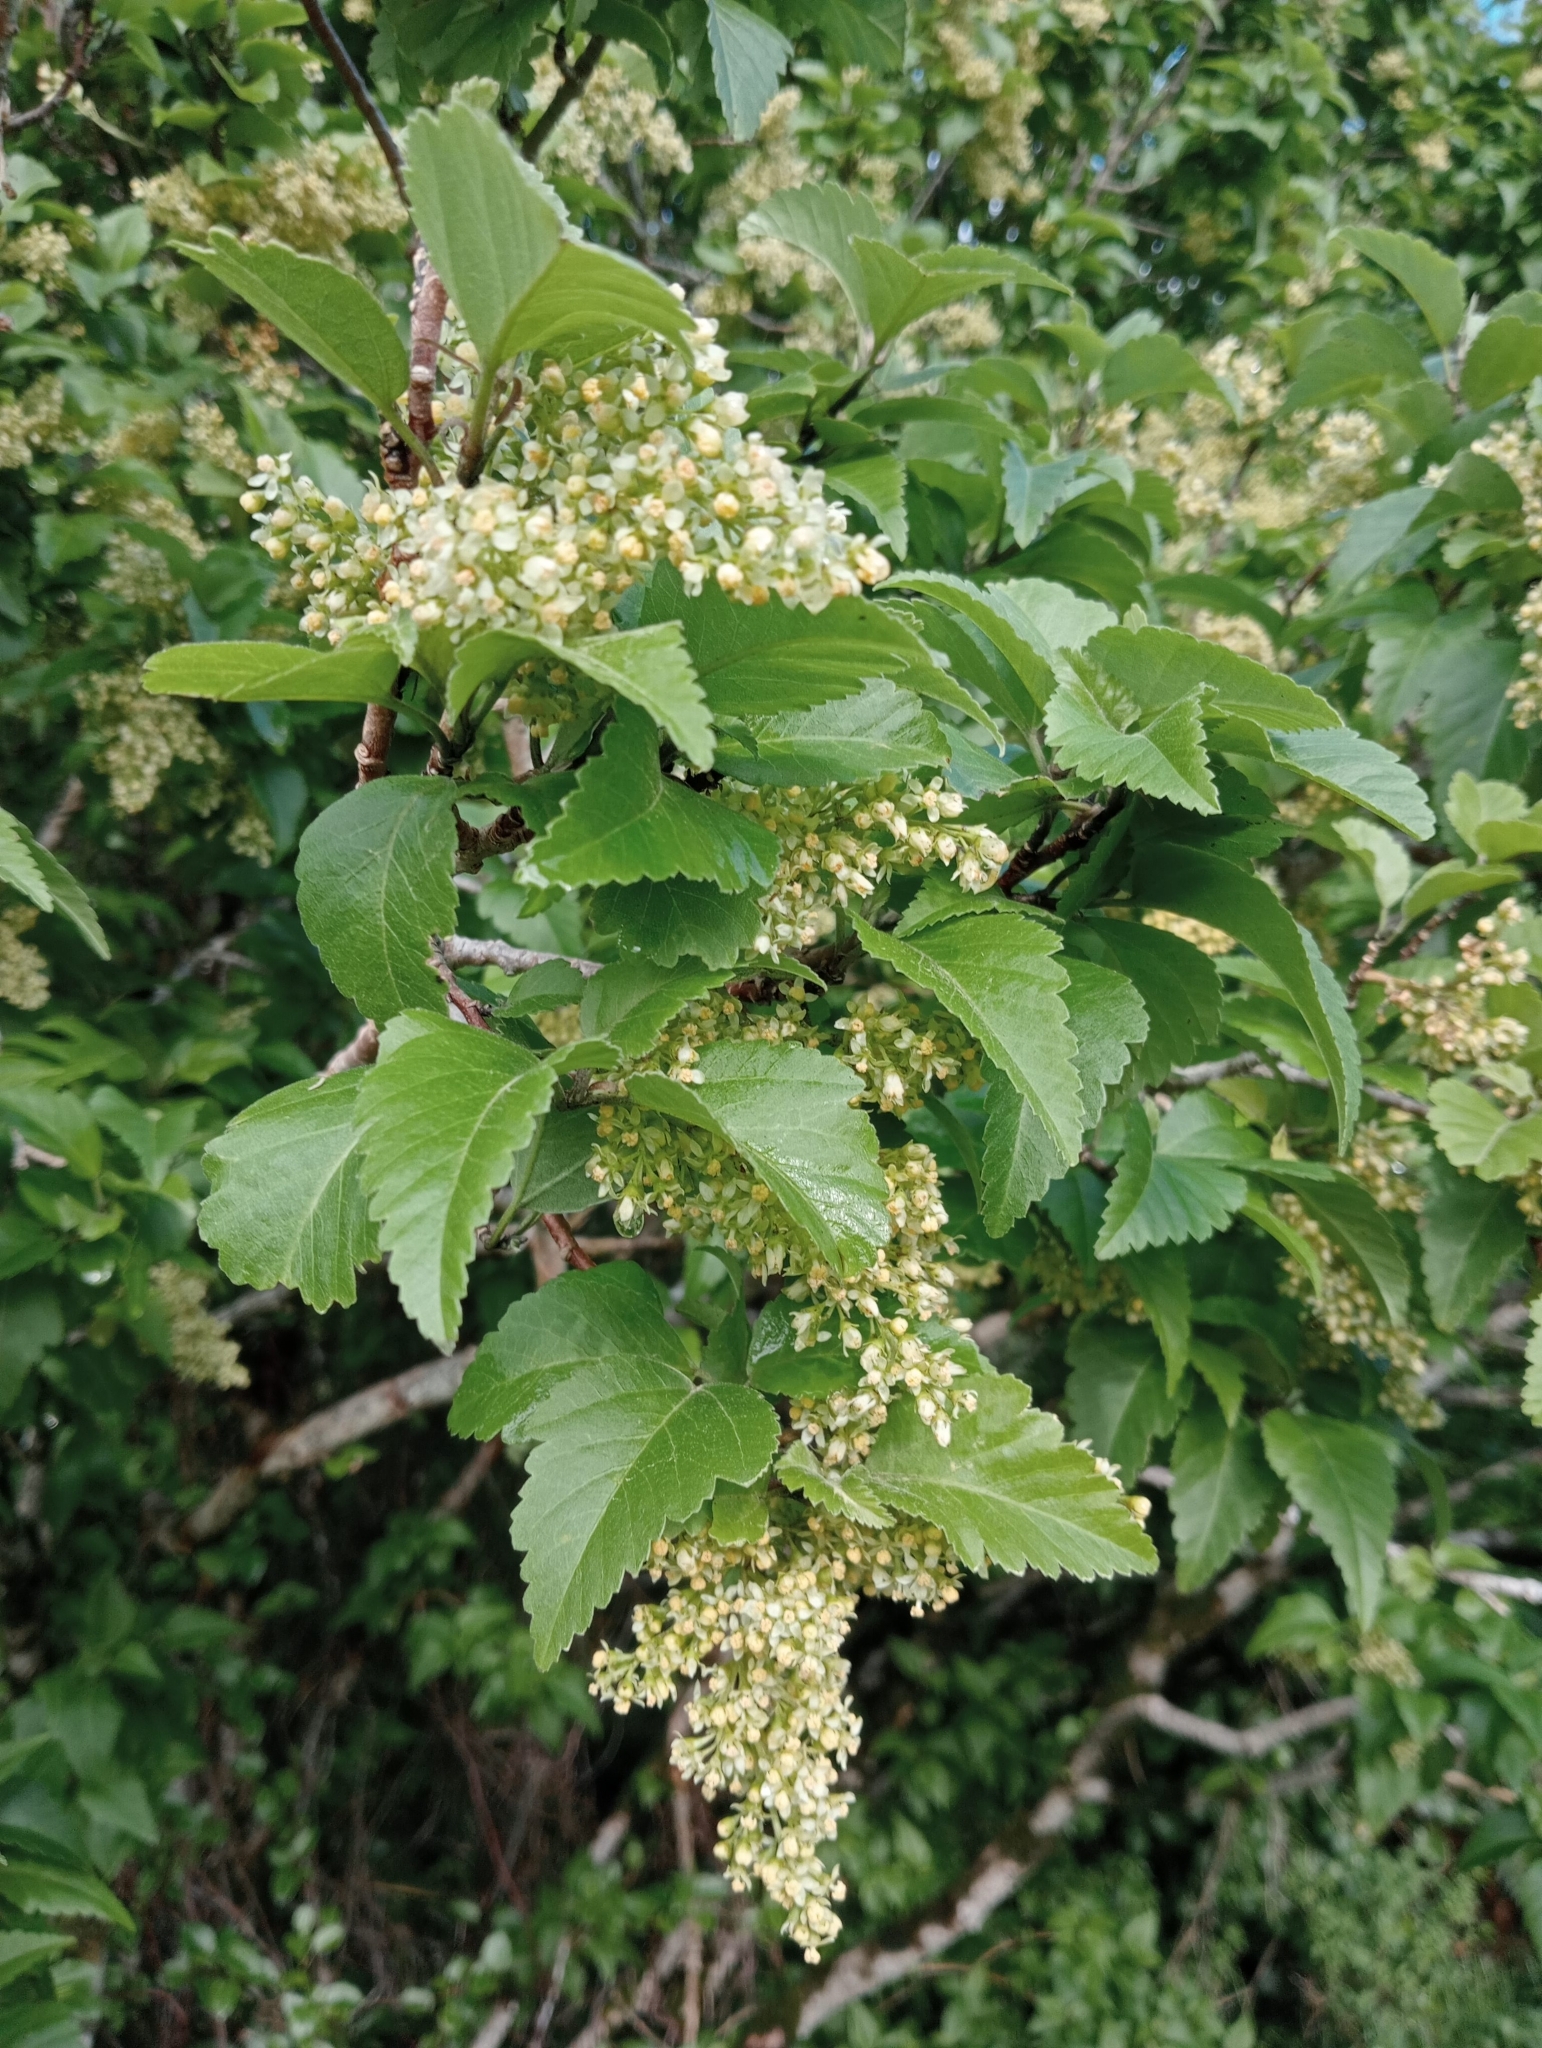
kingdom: Plantae
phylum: Tracheophyta
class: Magnoliopsida
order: Malvales
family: Malvaceae
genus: Plagianthus
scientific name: Plagianthus regius
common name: Manatu
